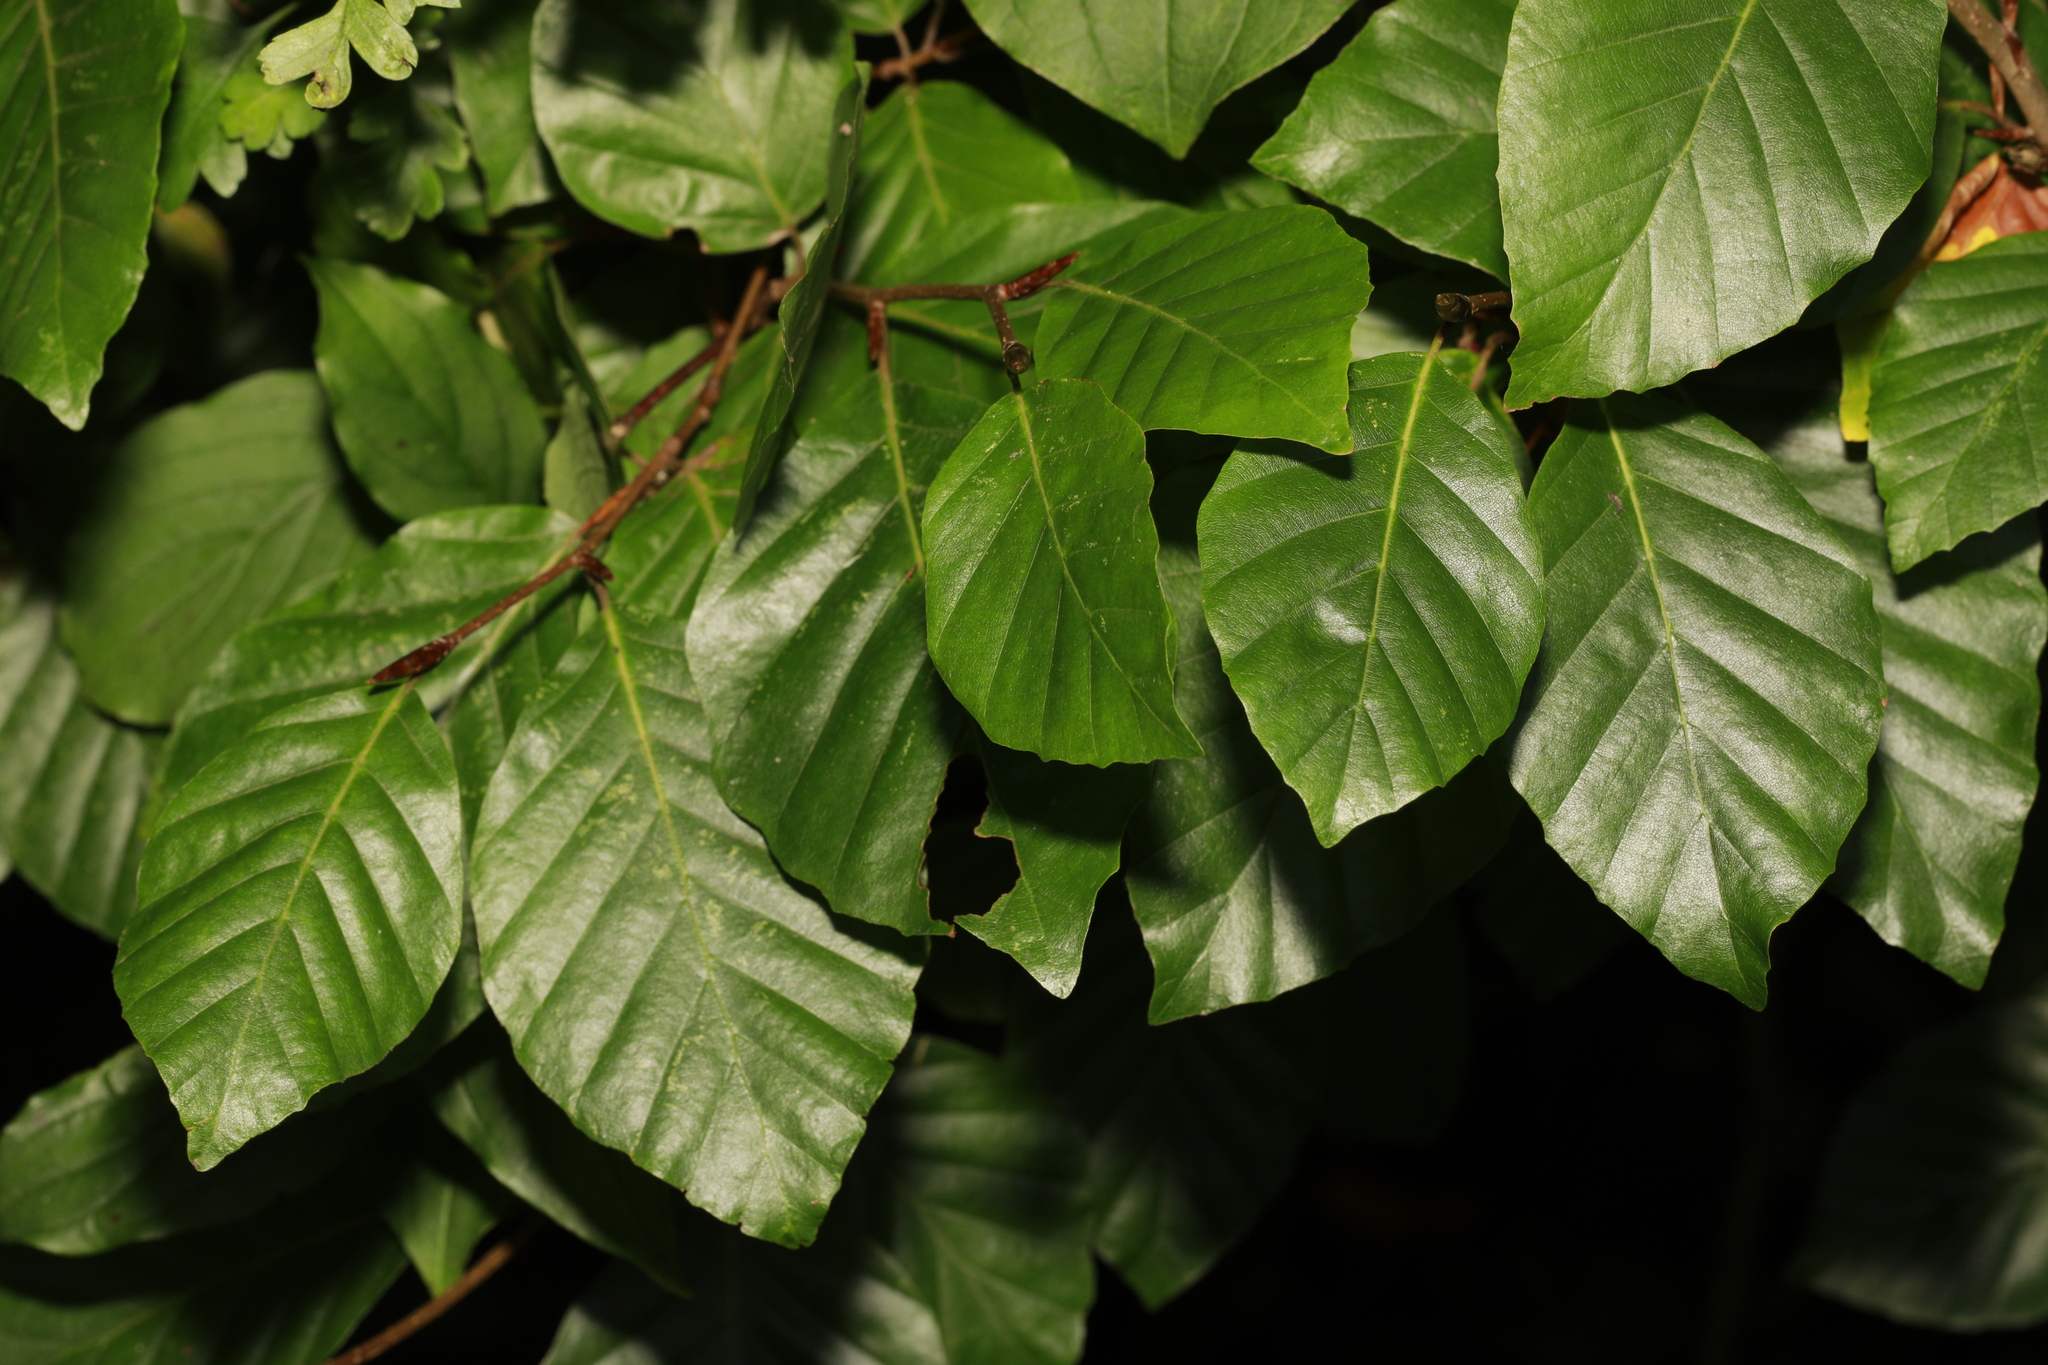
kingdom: Plantae
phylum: Tracheophyta
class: Magnoliopsida
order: Fagales
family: Fagaceae
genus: Fagus
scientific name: Fagus sylvatica
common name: Beech
